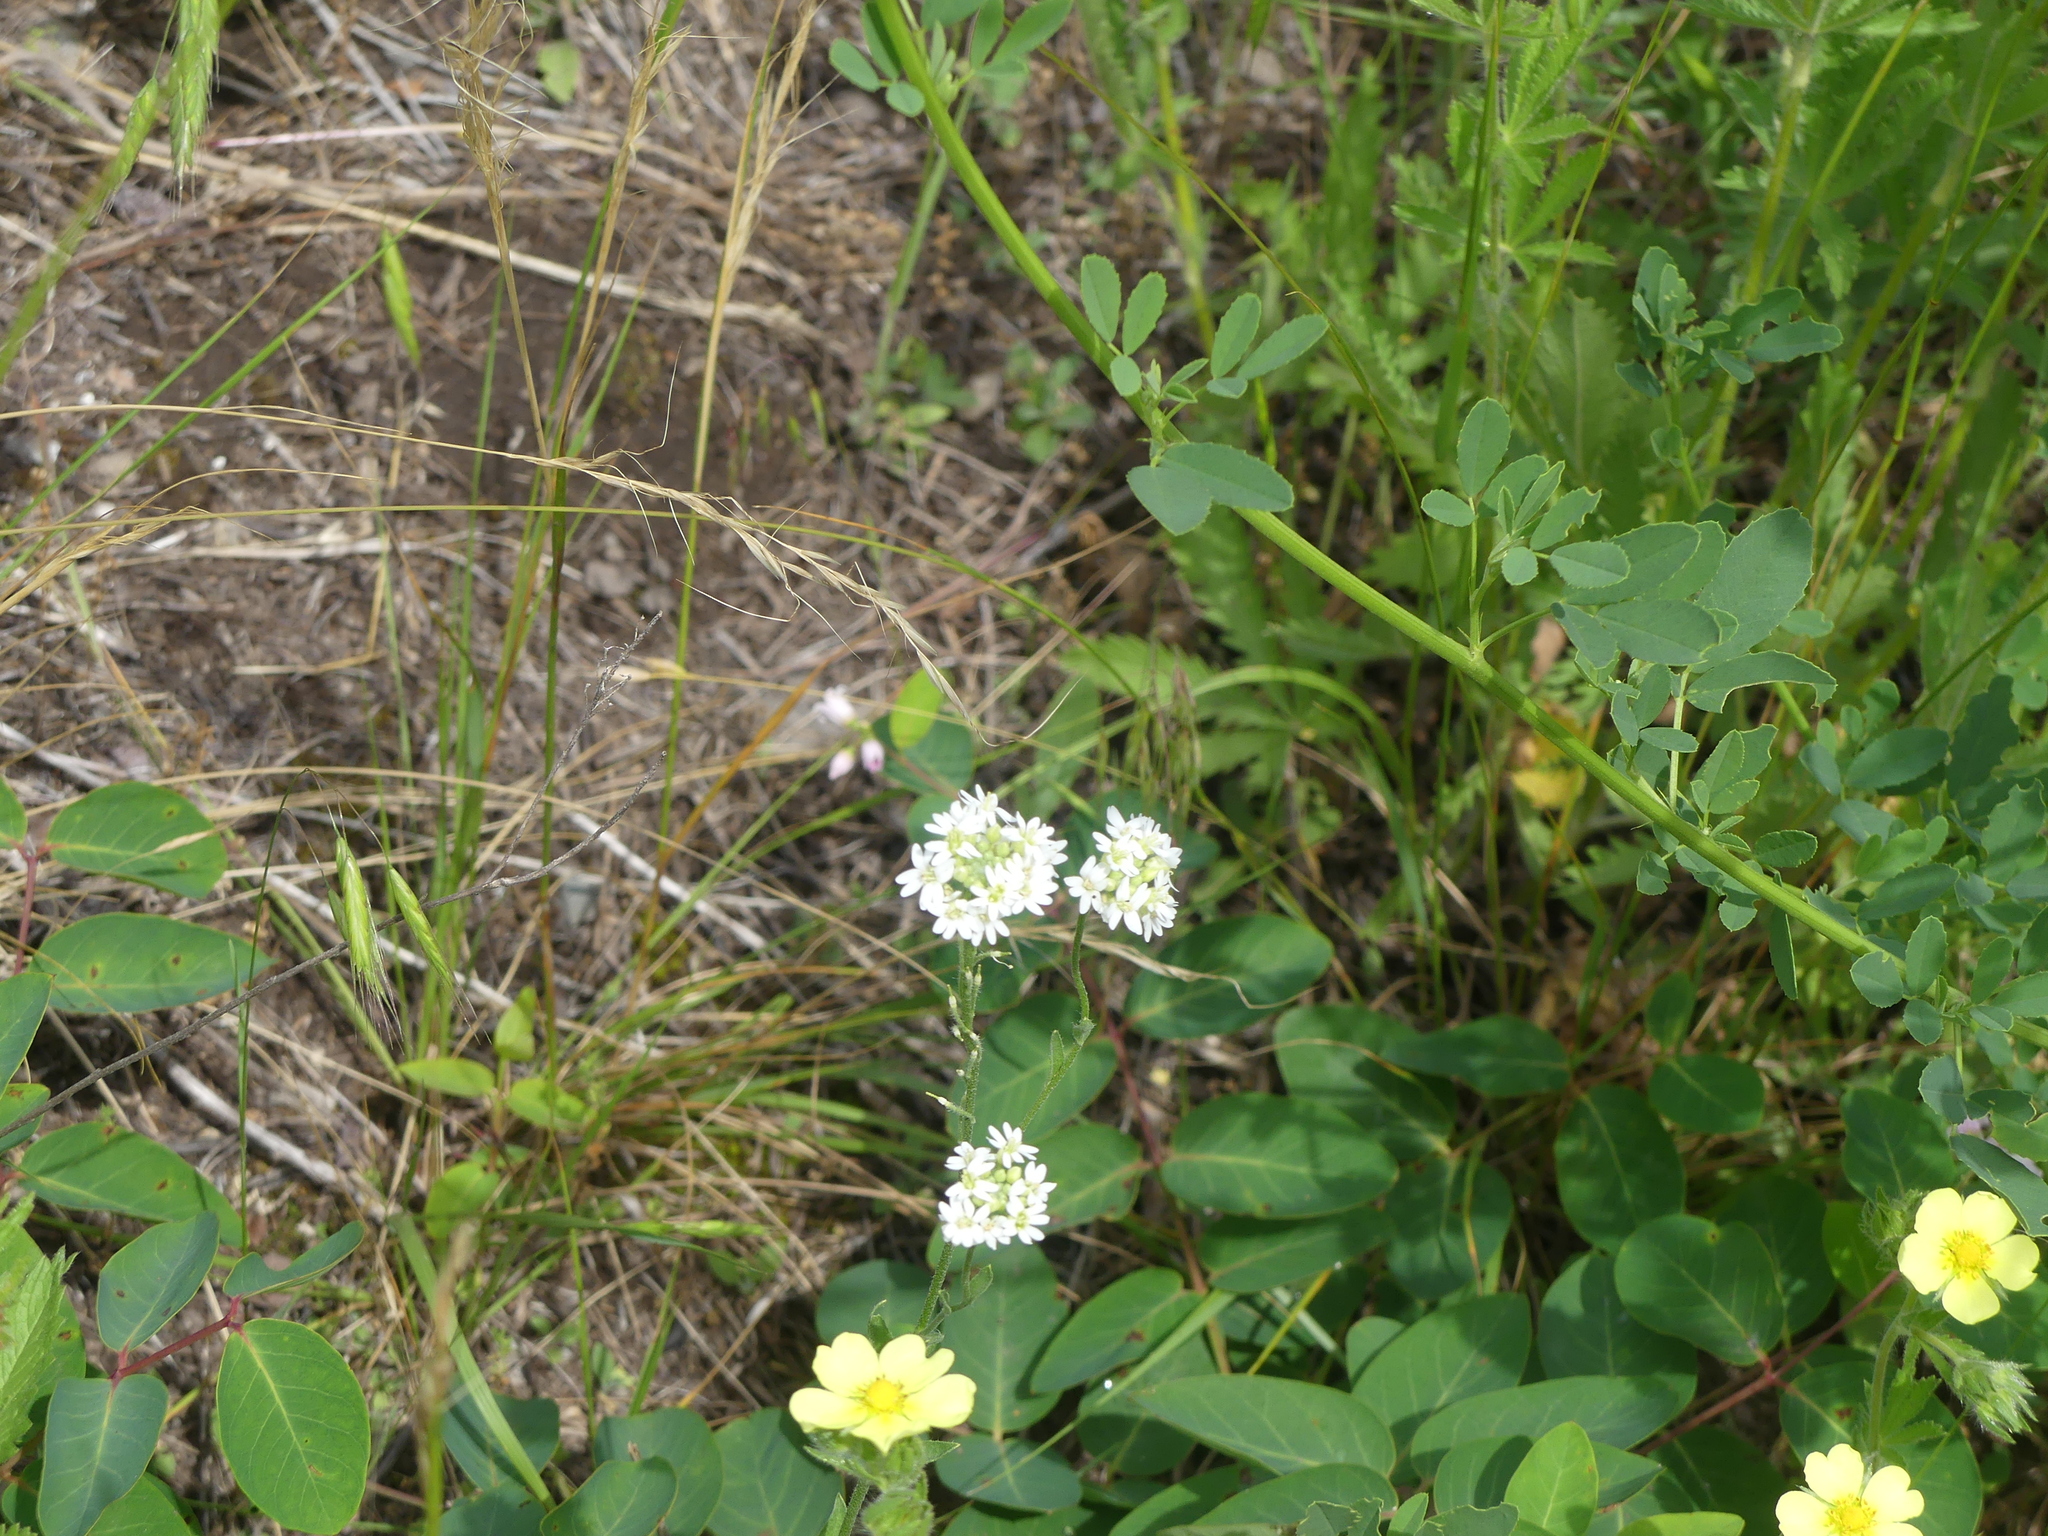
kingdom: Plantae
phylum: Tracheophyta
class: Magnoliopsida
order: Brassicales
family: Brassicaceae
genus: Berteroa
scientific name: Berteroa incana
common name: Hoary alison
